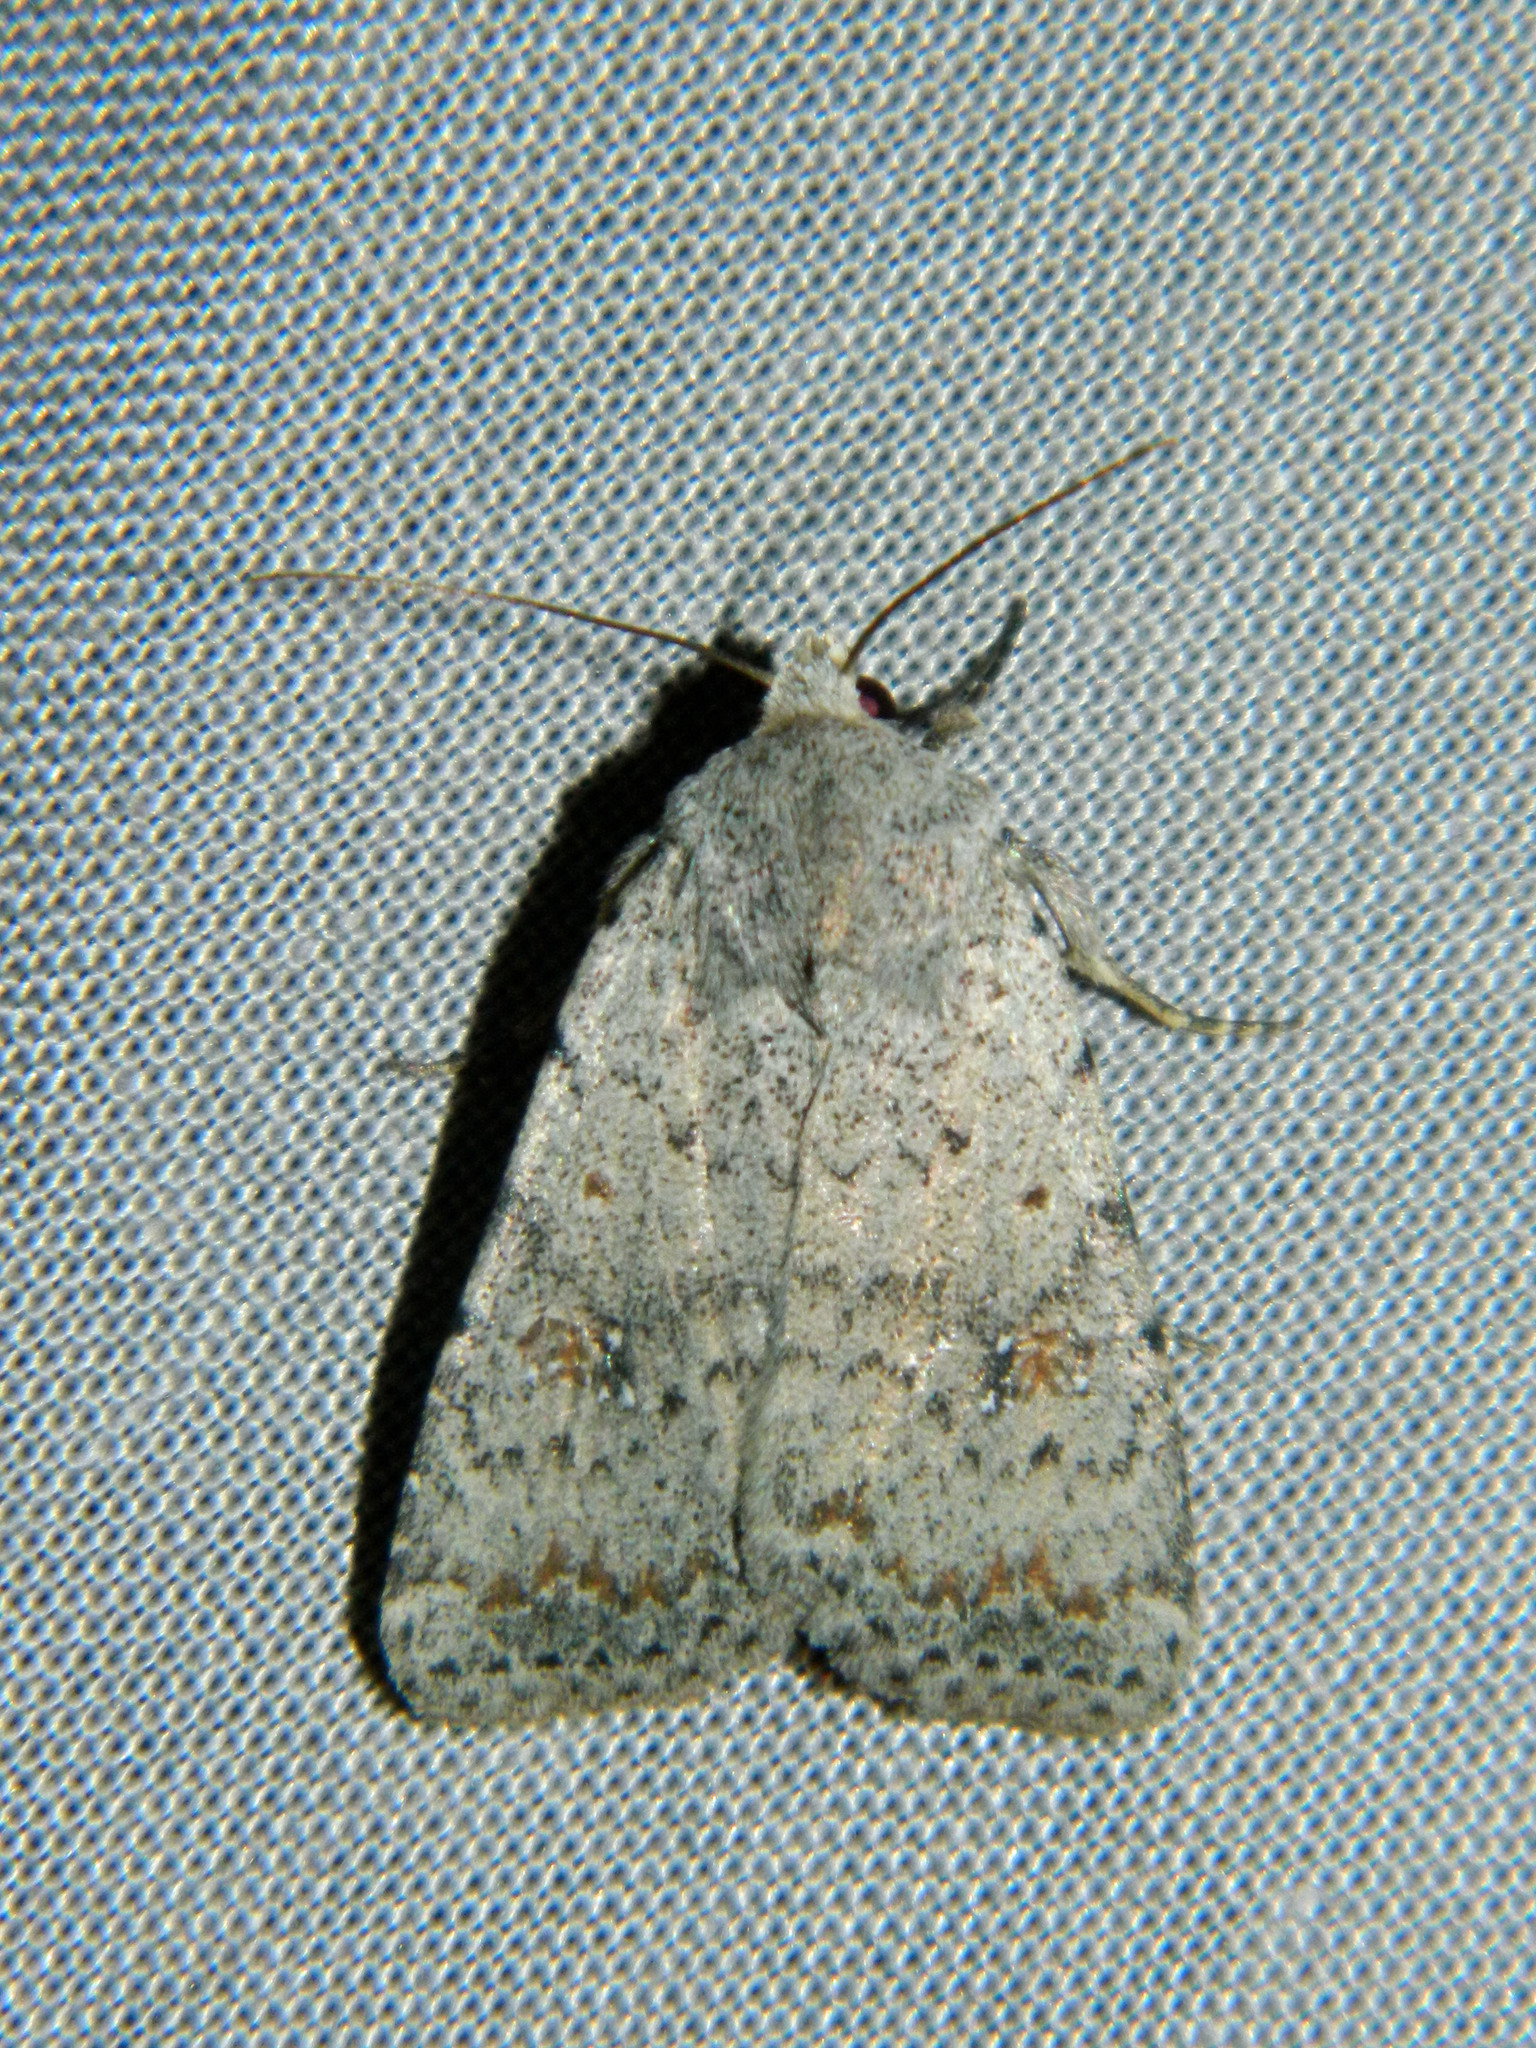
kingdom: Animalia
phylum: Arthropoda
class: Insecta
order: Lepidoptera
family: Noctuidae
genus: Caradrina
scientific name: Caradrina multifera
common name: Speckled rustic
